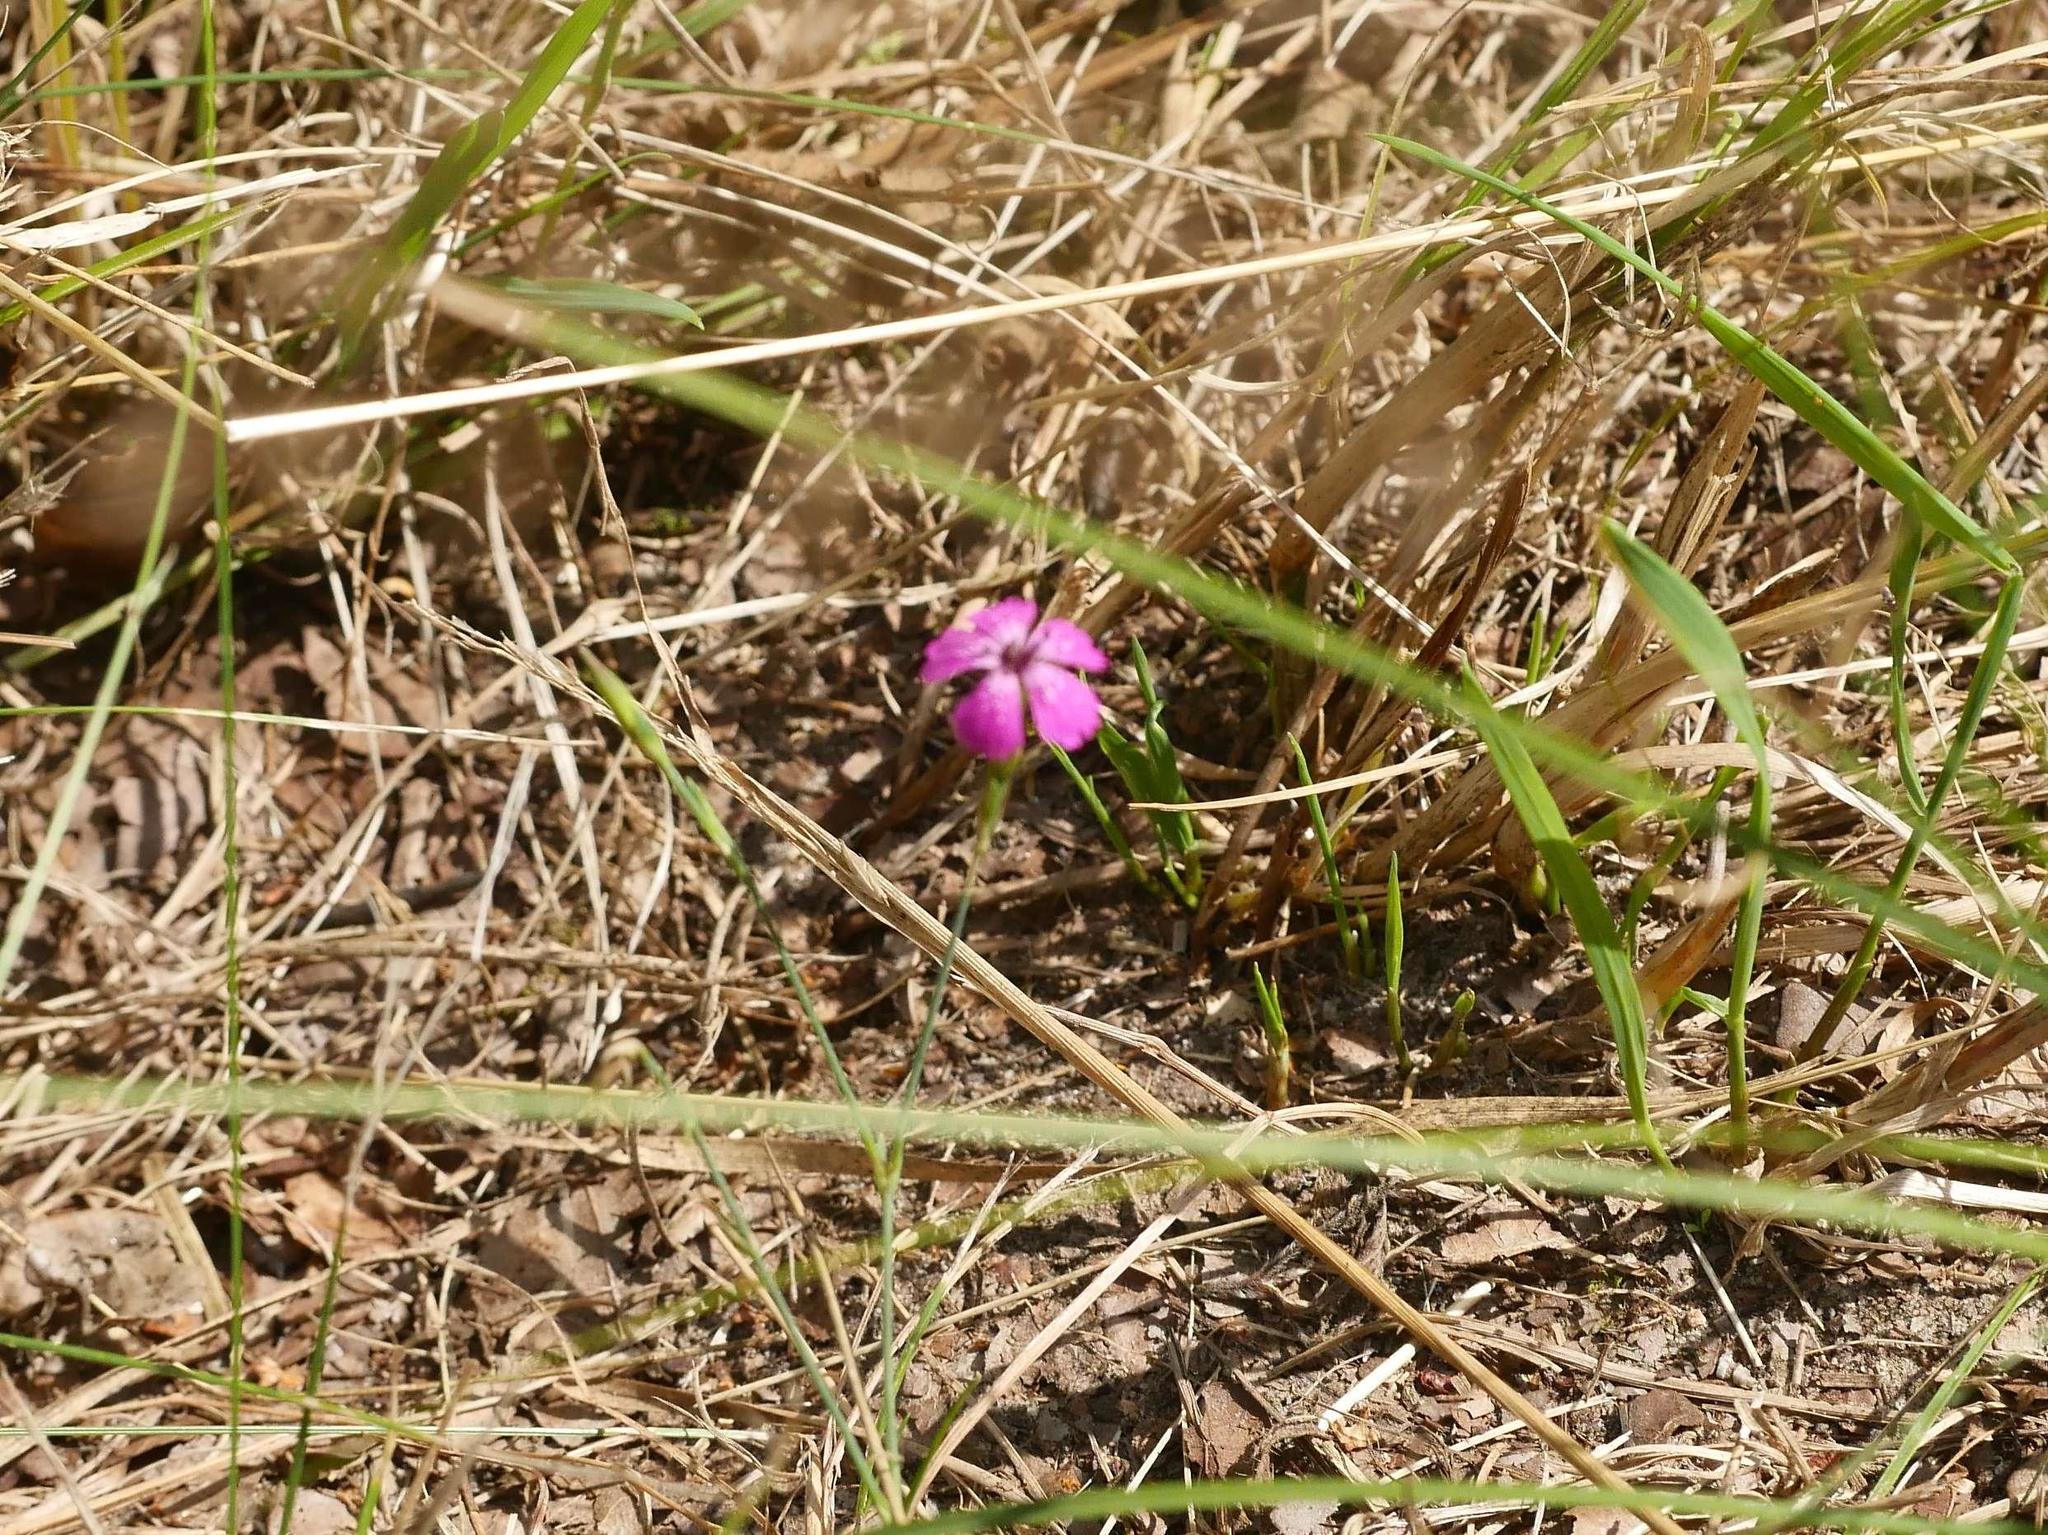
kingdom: Plantae
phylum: Tracheophyta
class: Magnoliopsida
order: Caryophyllales
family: Caryophyllaceae
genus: Dianthus
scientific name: Dianthus deltoides
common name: Maiden pink
